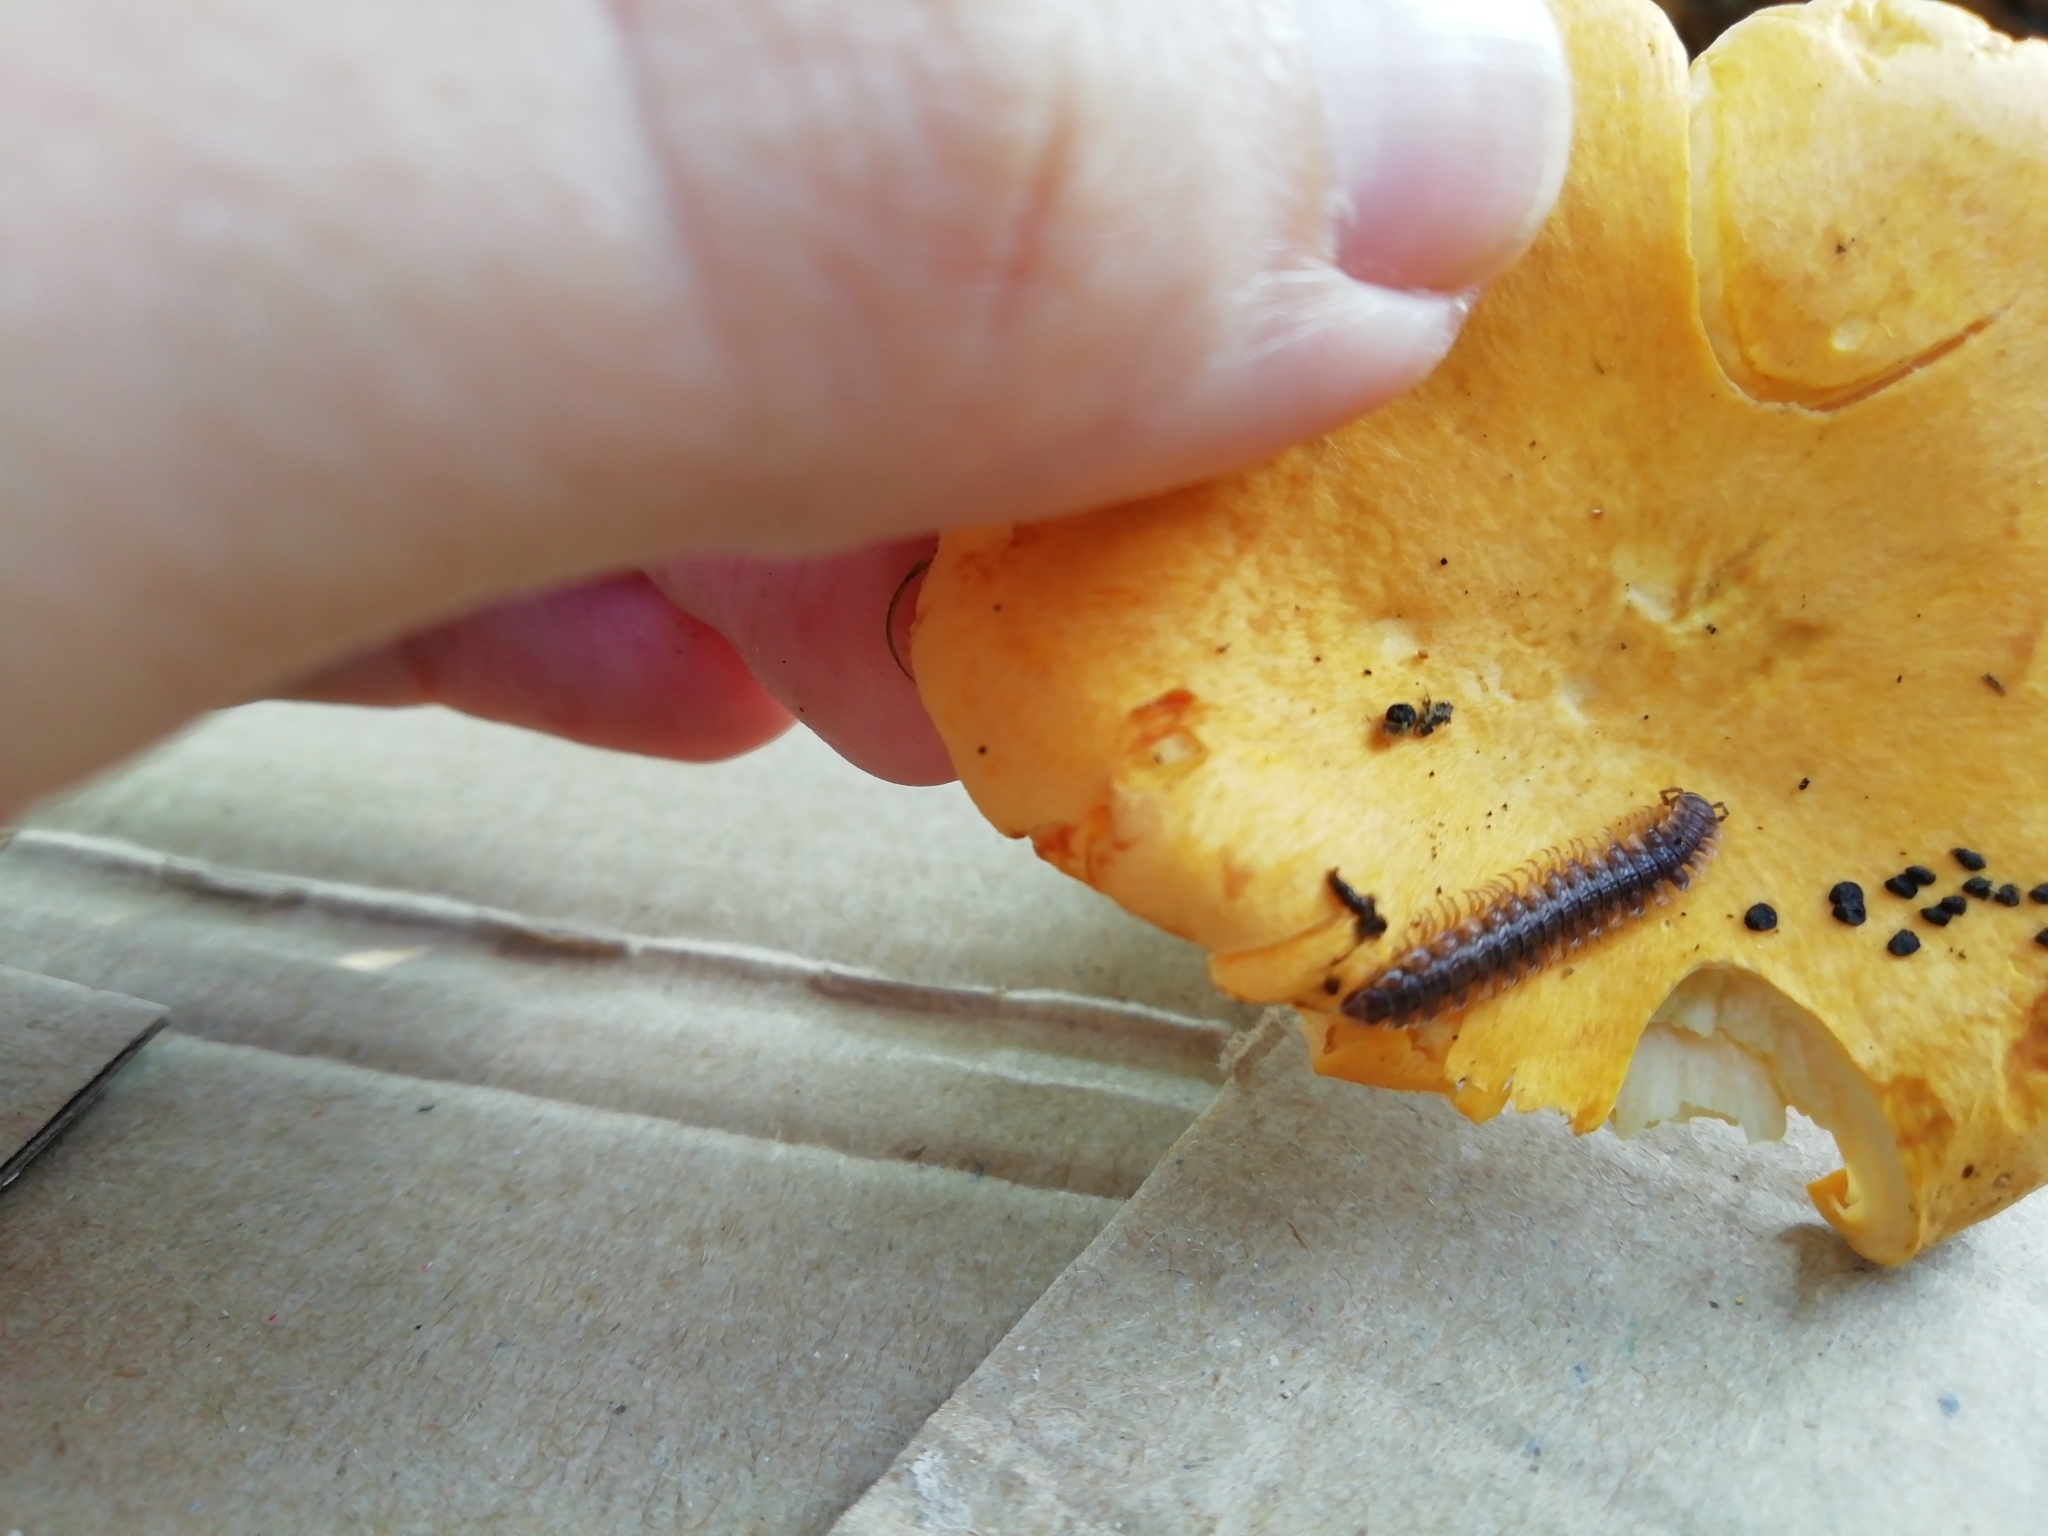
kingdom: Animalia
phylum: Arthropoda
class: Diplopoda
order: Polydesmida
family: Polydesmidae
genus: Polydesmus
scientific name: Polydesmus complanatus
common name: Flat-backed millipede
